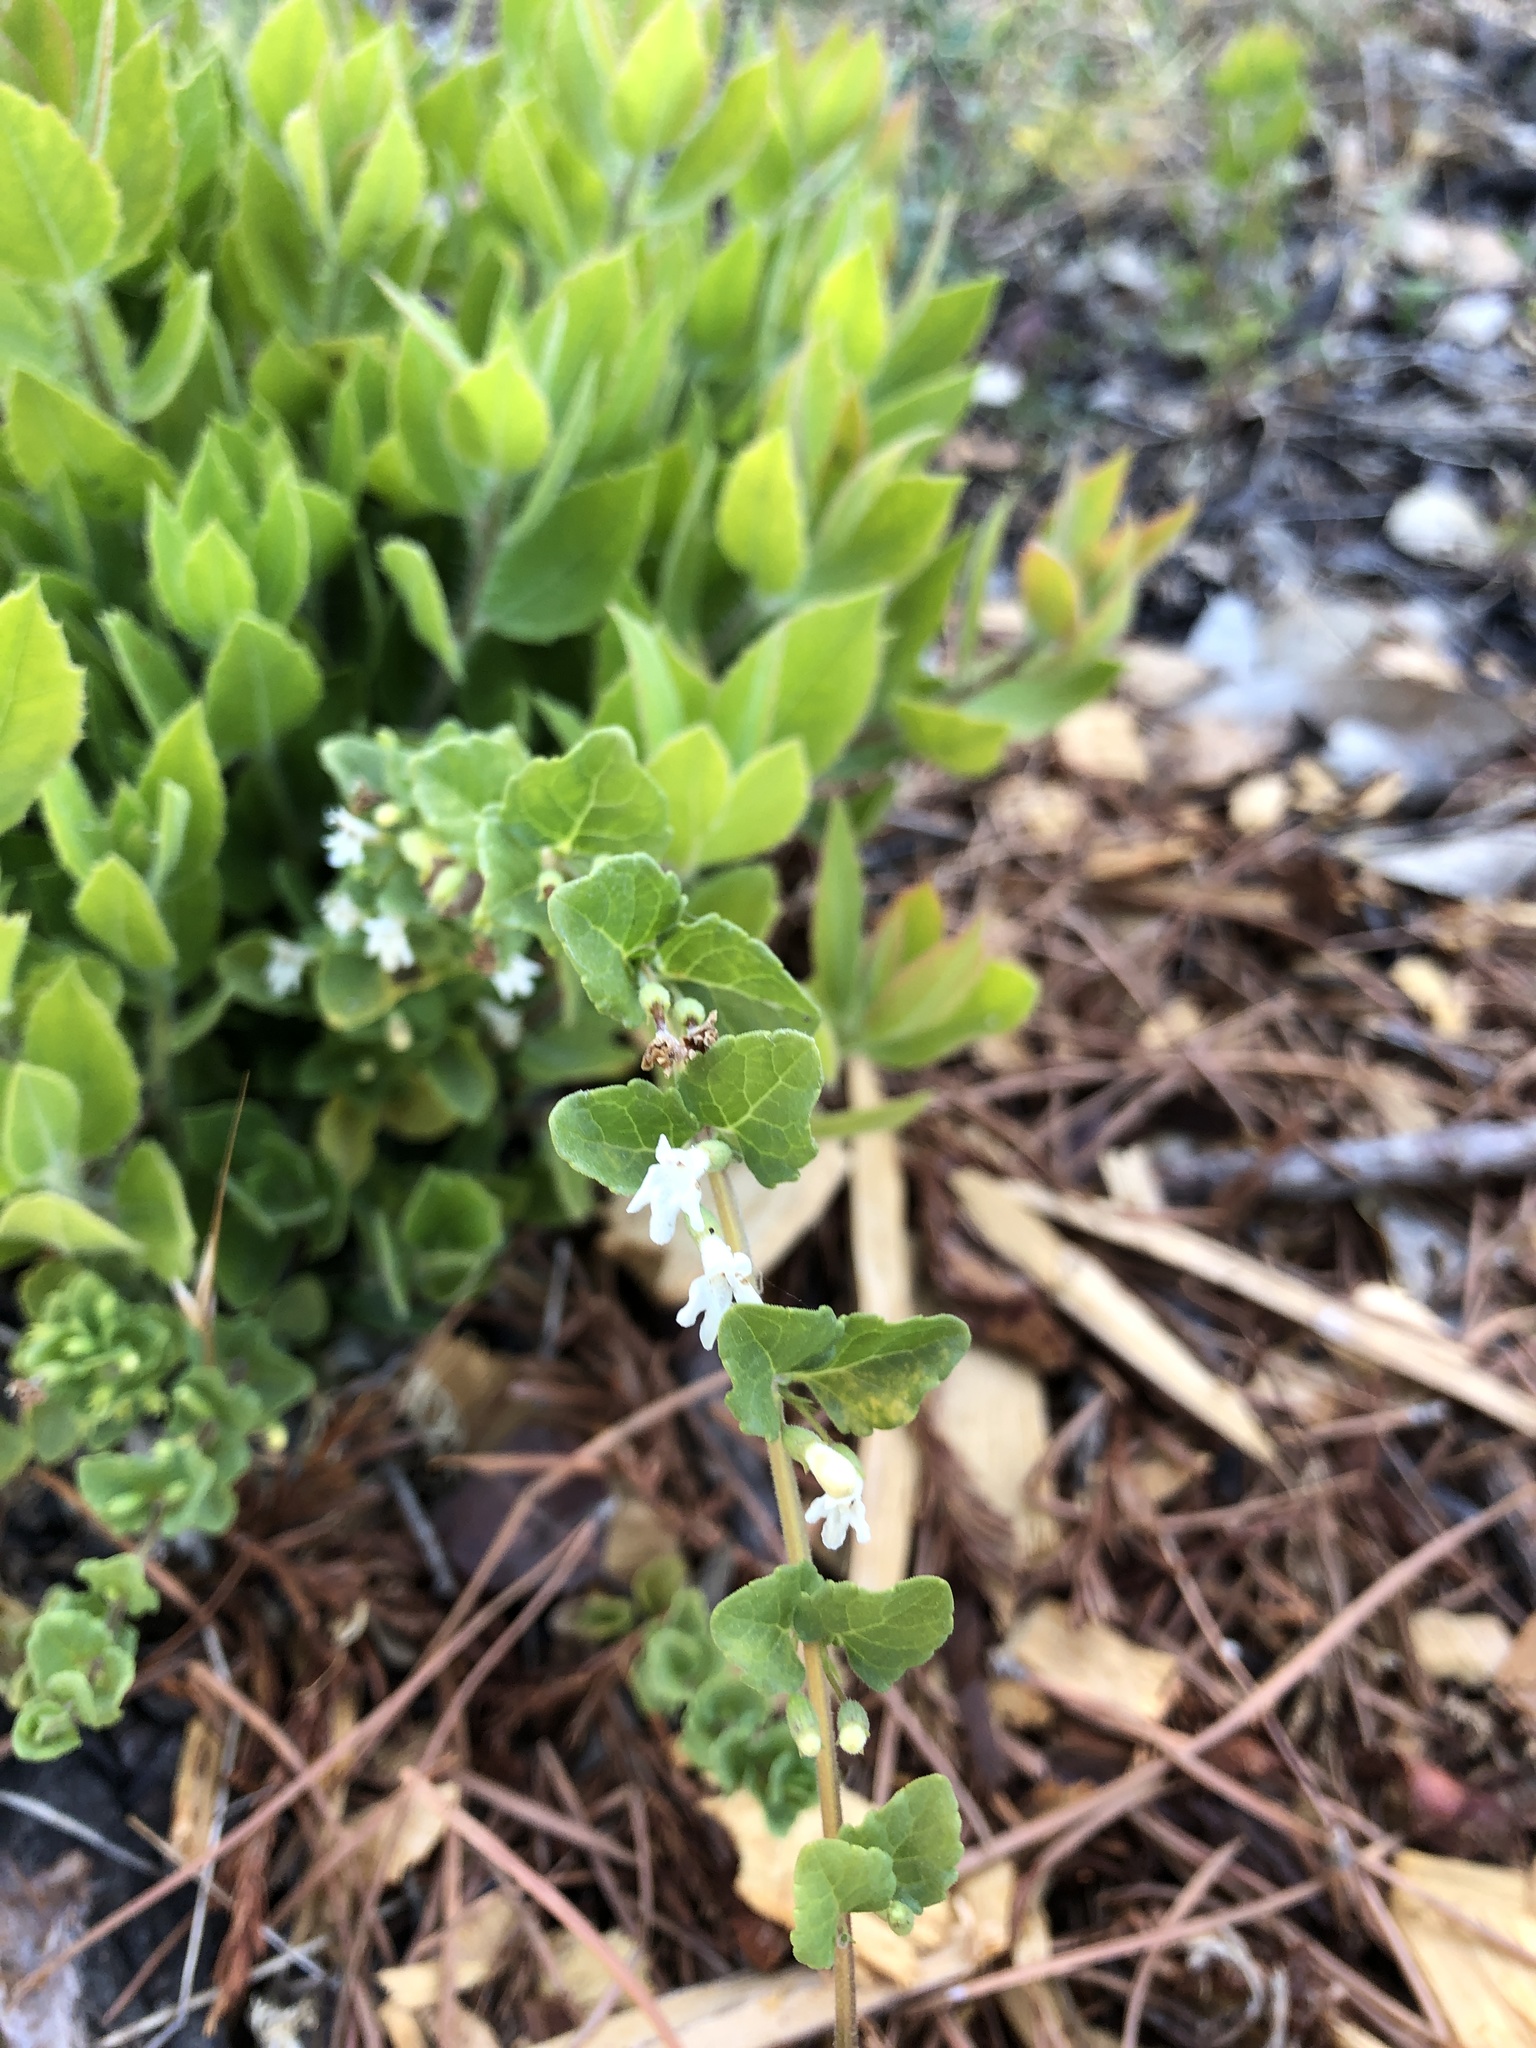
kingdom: Plantae
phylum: Tracheophyta
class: Magnoliopsida
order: Lamiales
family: Lamiaceae
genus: Micromeria
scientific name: Micromeria douglasii
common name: Yerba buena
